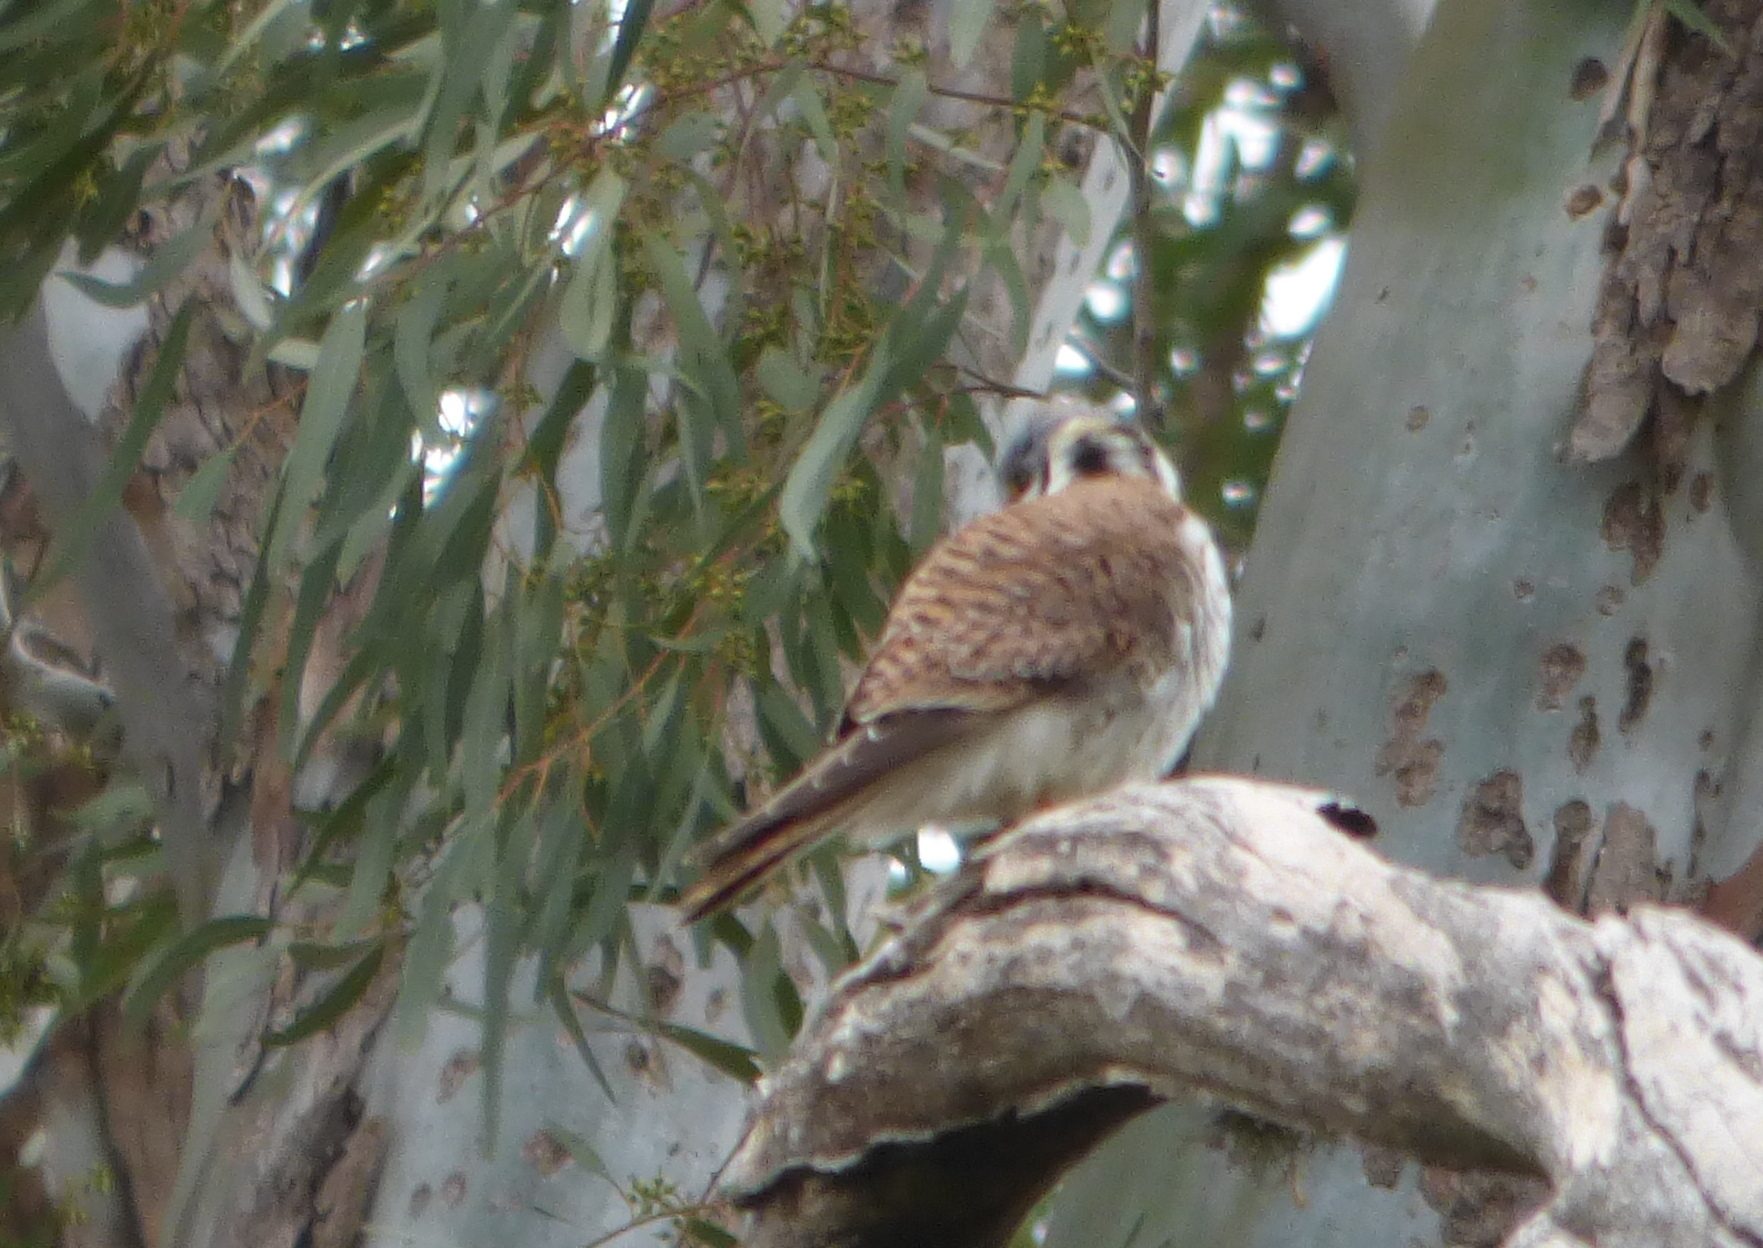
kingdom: Animalia
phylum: Chordata
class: Aves
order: Falconiformes
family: Falconidae
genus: Falco
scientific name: Falco sparverius
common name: American kestrel
